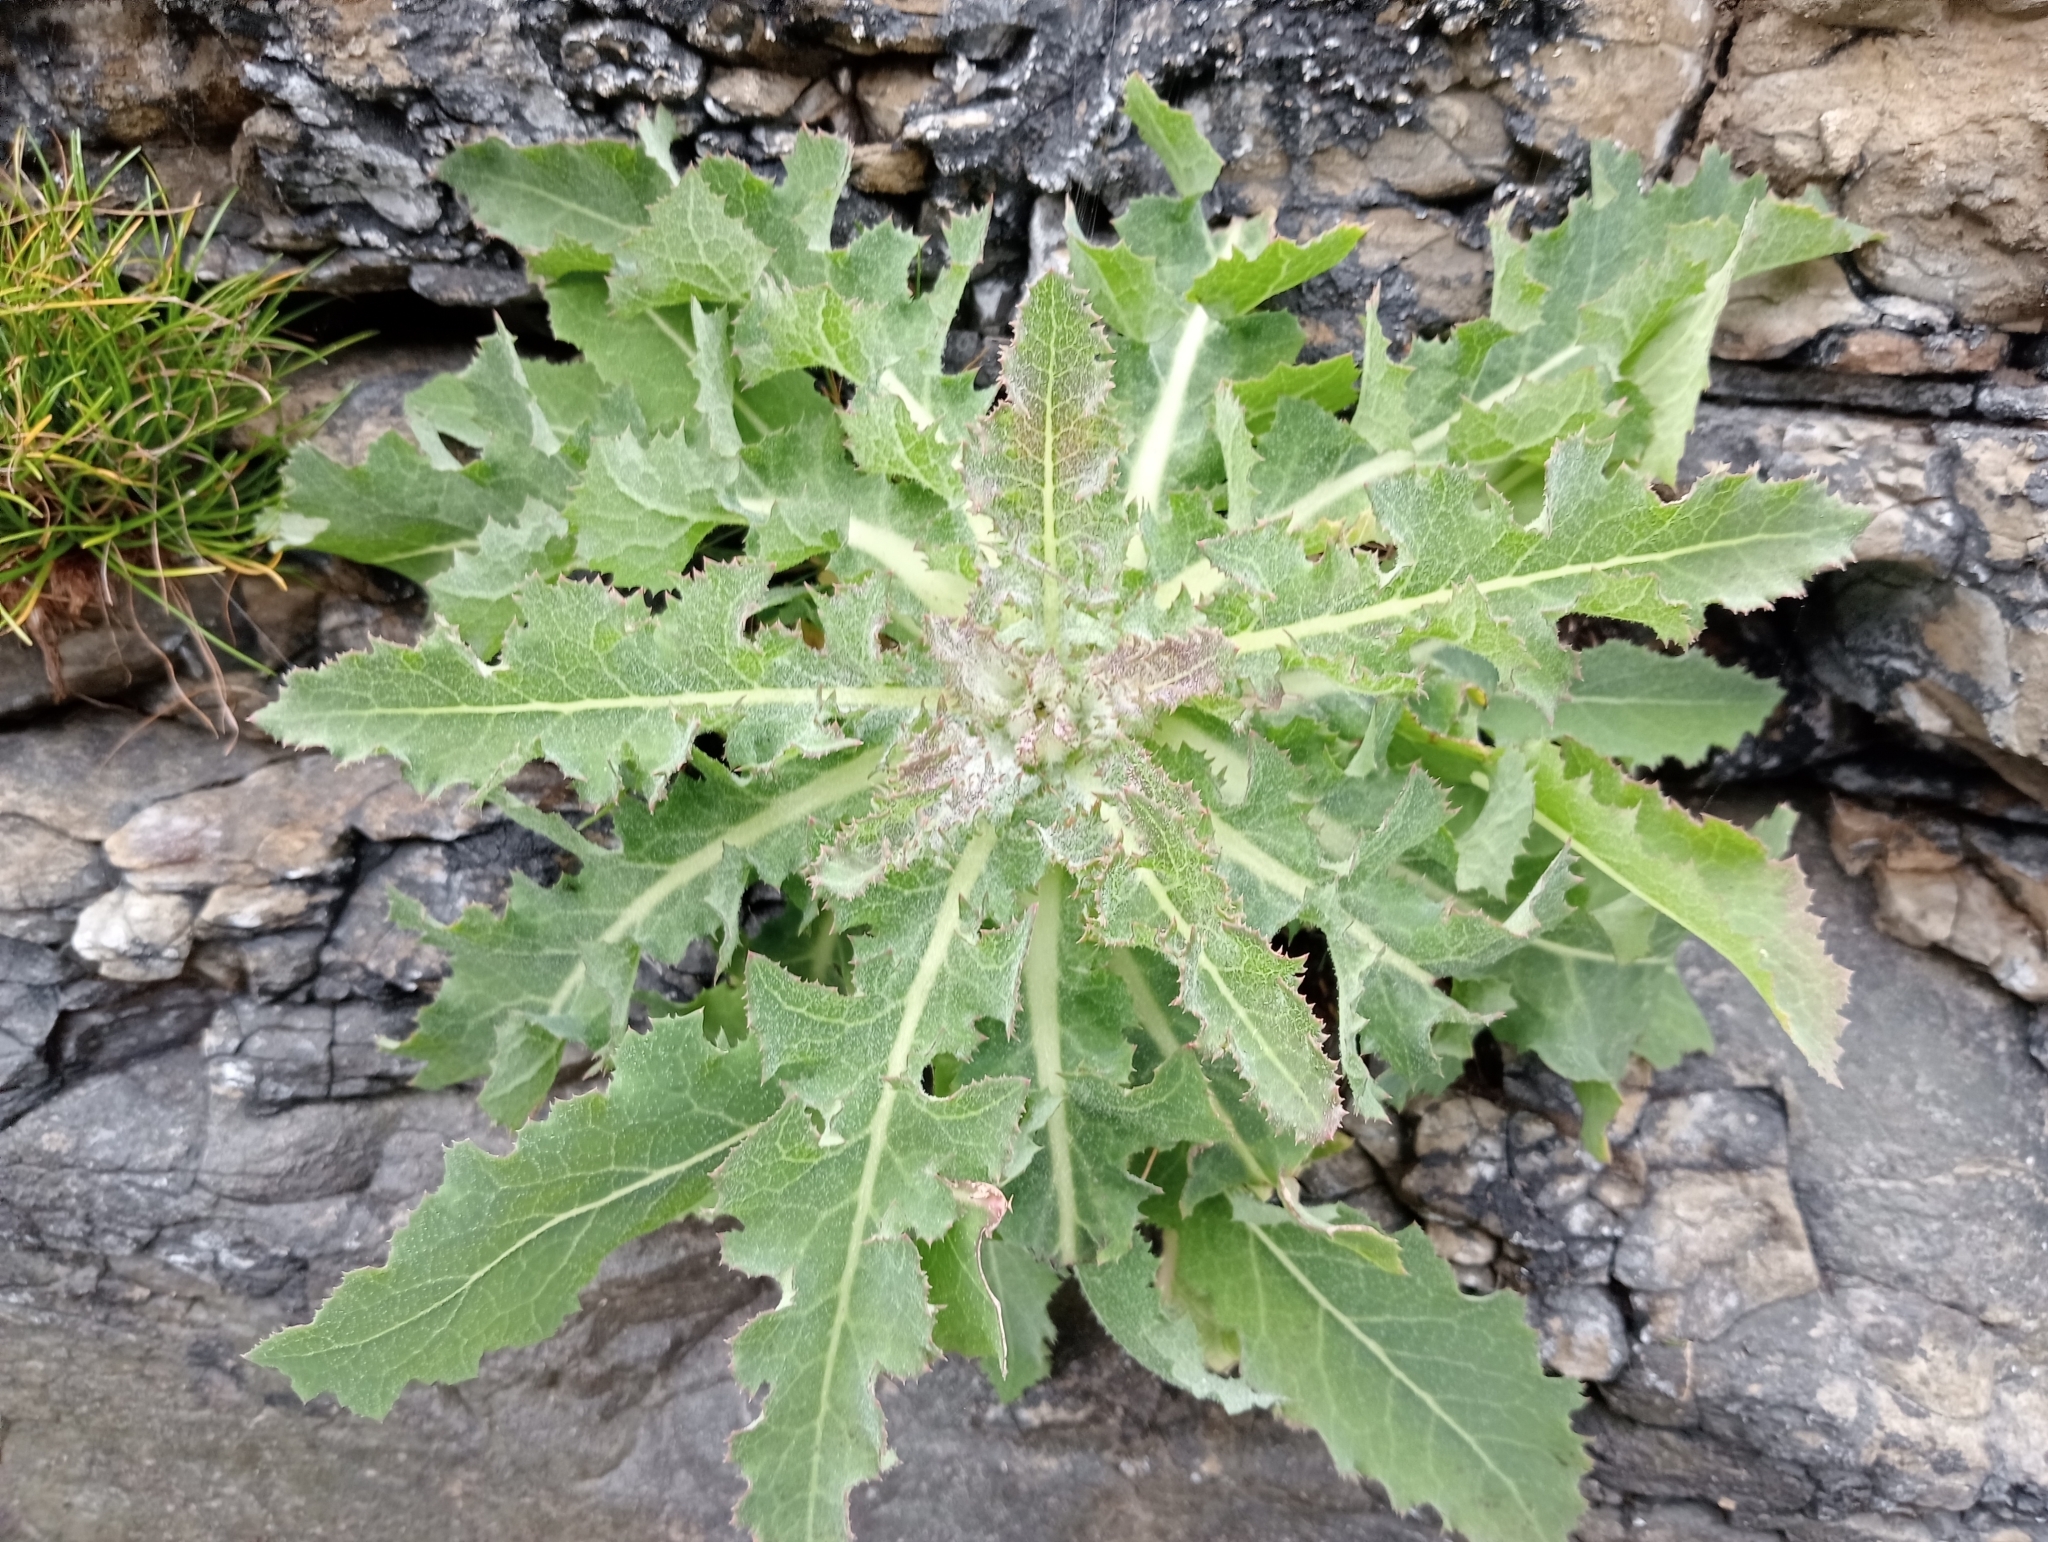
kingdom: Plantae
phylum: Tracheophyta
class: Magnoliopsida
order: Asterales
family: Asteraceae
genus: Sonchus
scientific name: Sonchus kirkii
